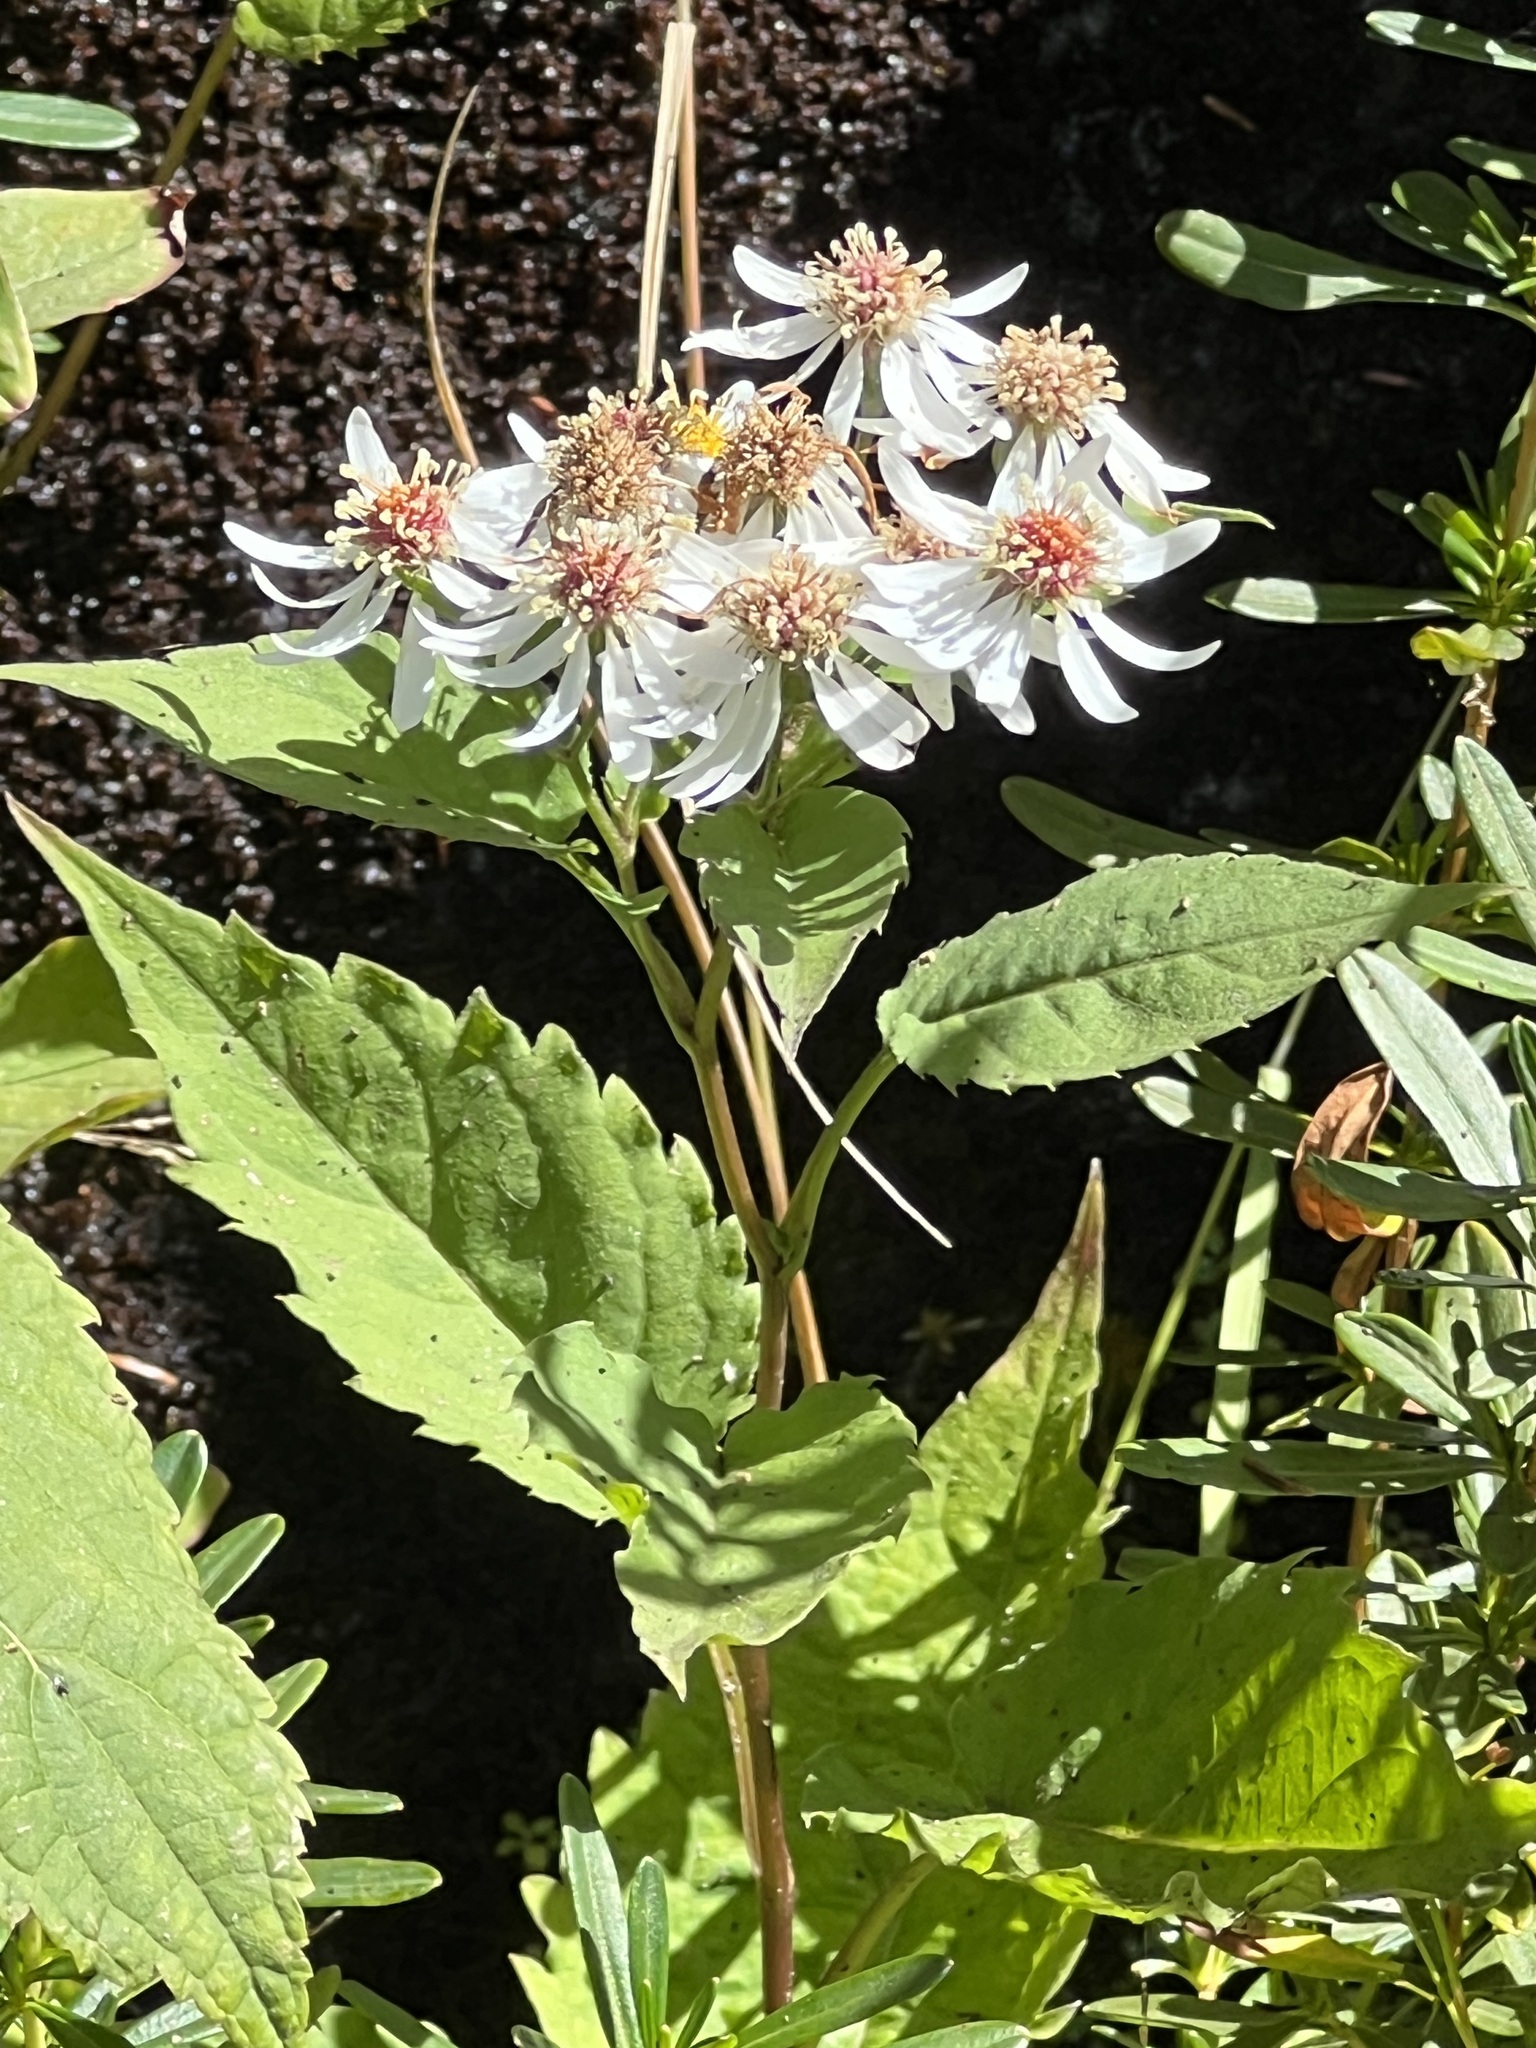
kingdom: Plantae
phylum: Tracheophyta
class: Magnoliopsida
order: Asterales
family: Asteraceae
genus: Eurybia
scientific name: Eurybia divaricata
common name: White wood aster
